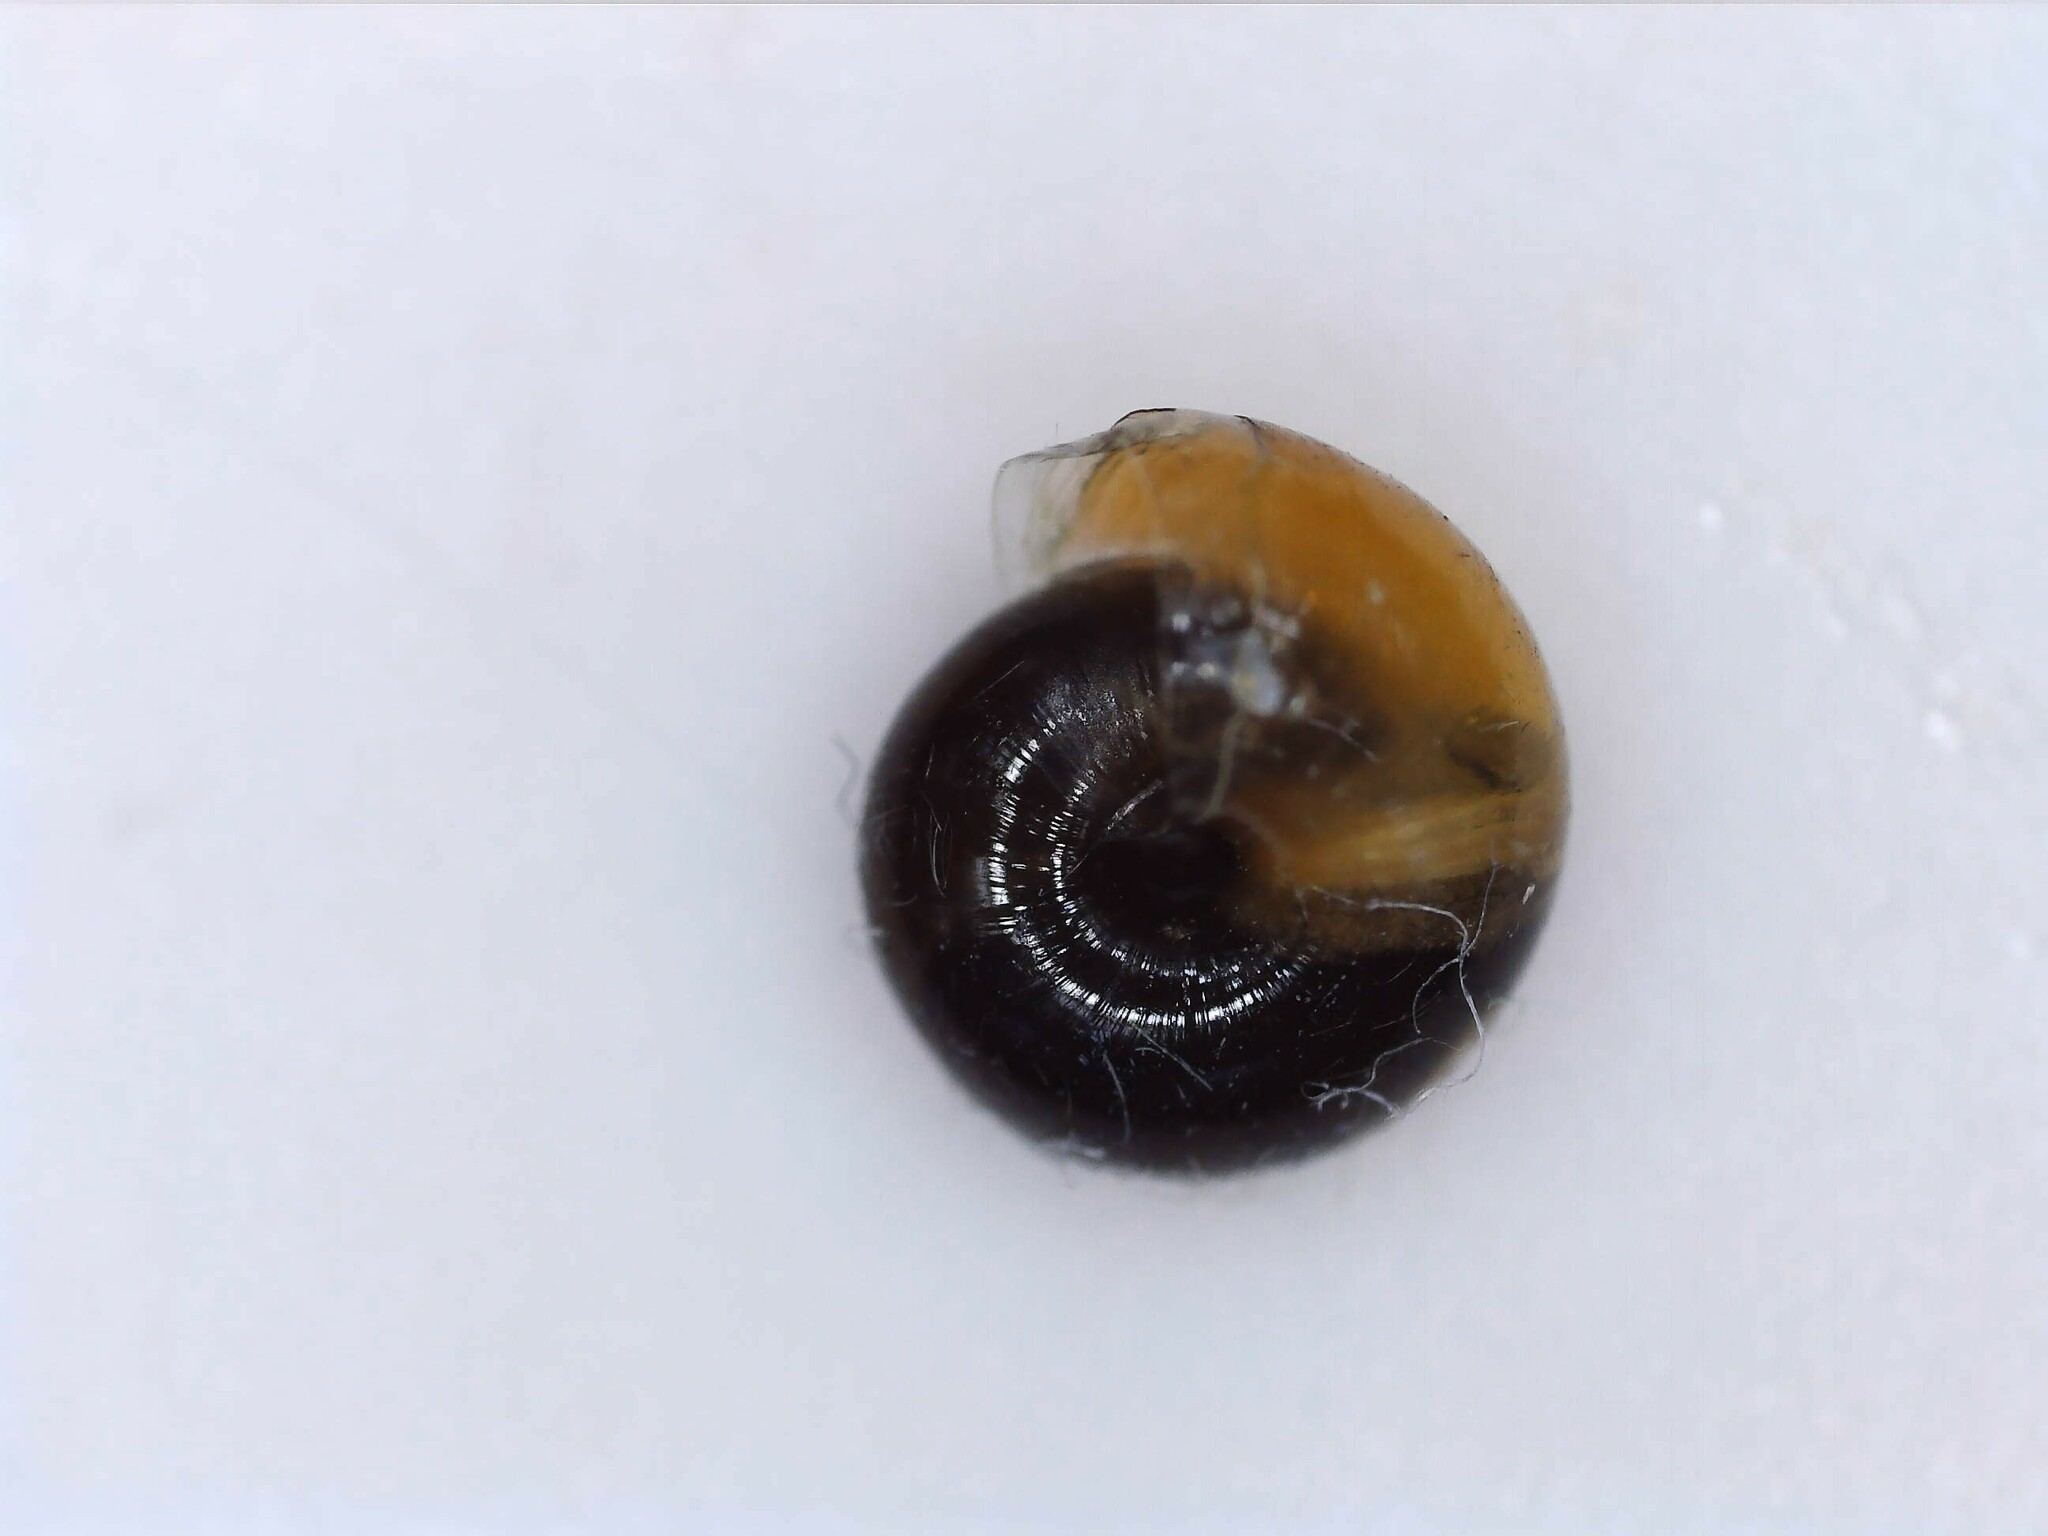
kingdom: Animalia
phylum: Mollusca
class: Gastropoda
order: Stylommatophora
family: Gastrodontidae
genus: Zonitoides
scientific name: Zonitoides nitidus
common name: Shiny glass snail
